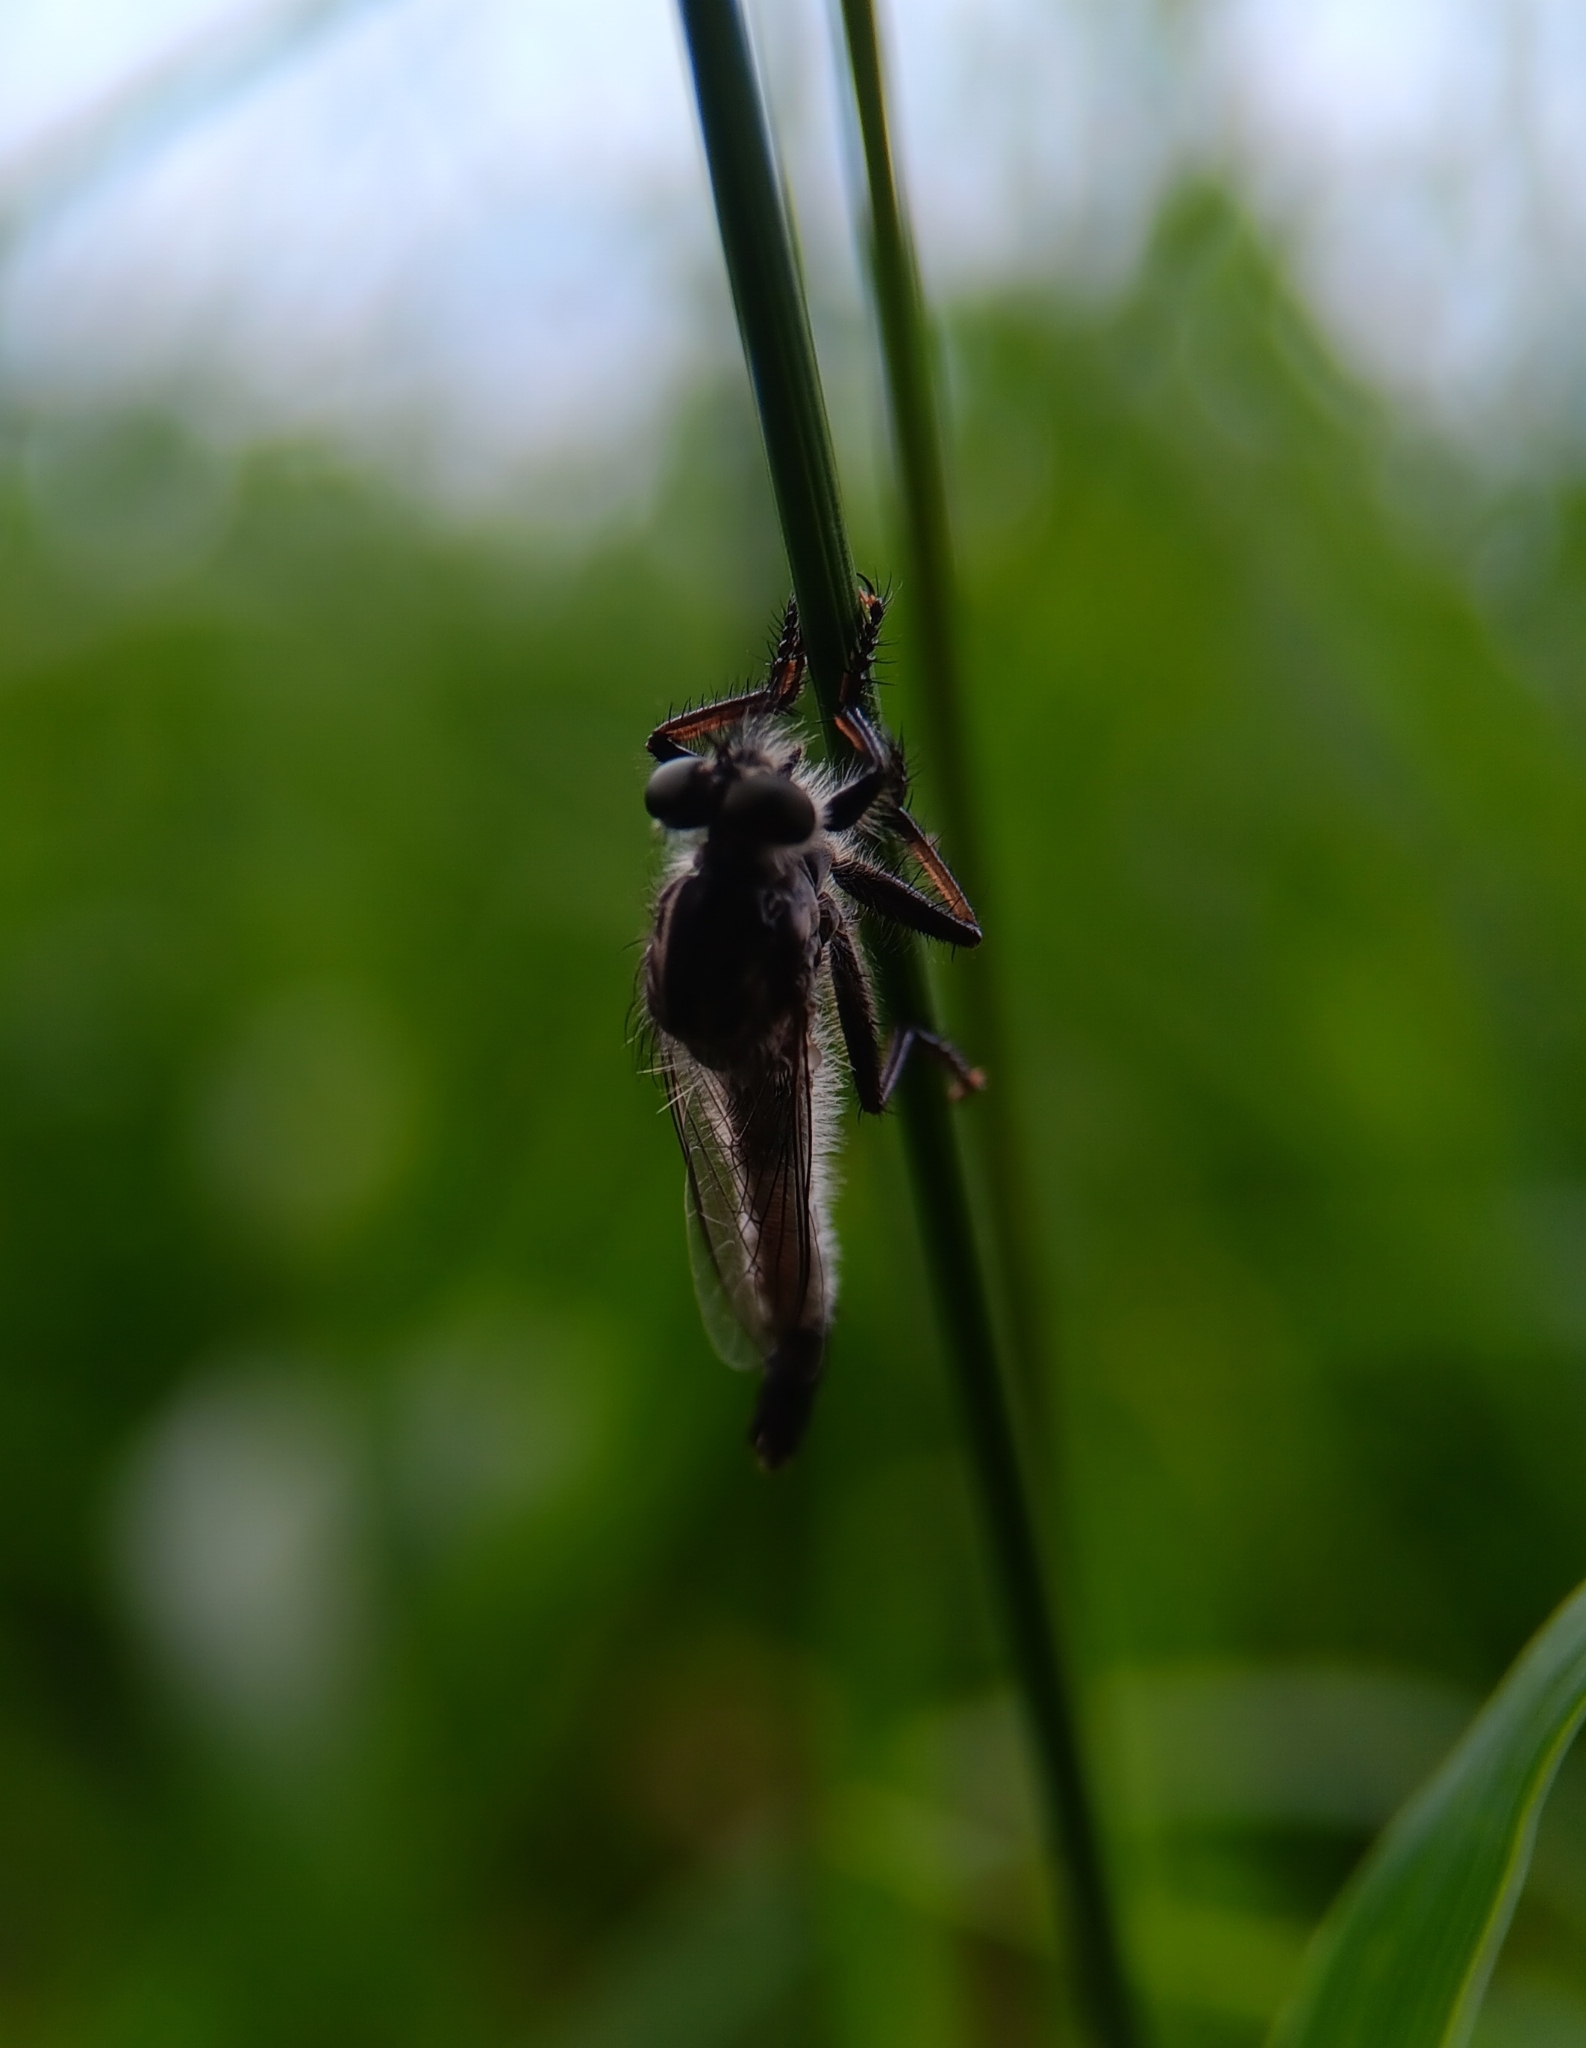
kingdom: Animalia
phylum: Arthropoda
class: Insecta
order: Diptera
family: Asilidae
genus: Efferia
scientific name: Efferia aestuans
